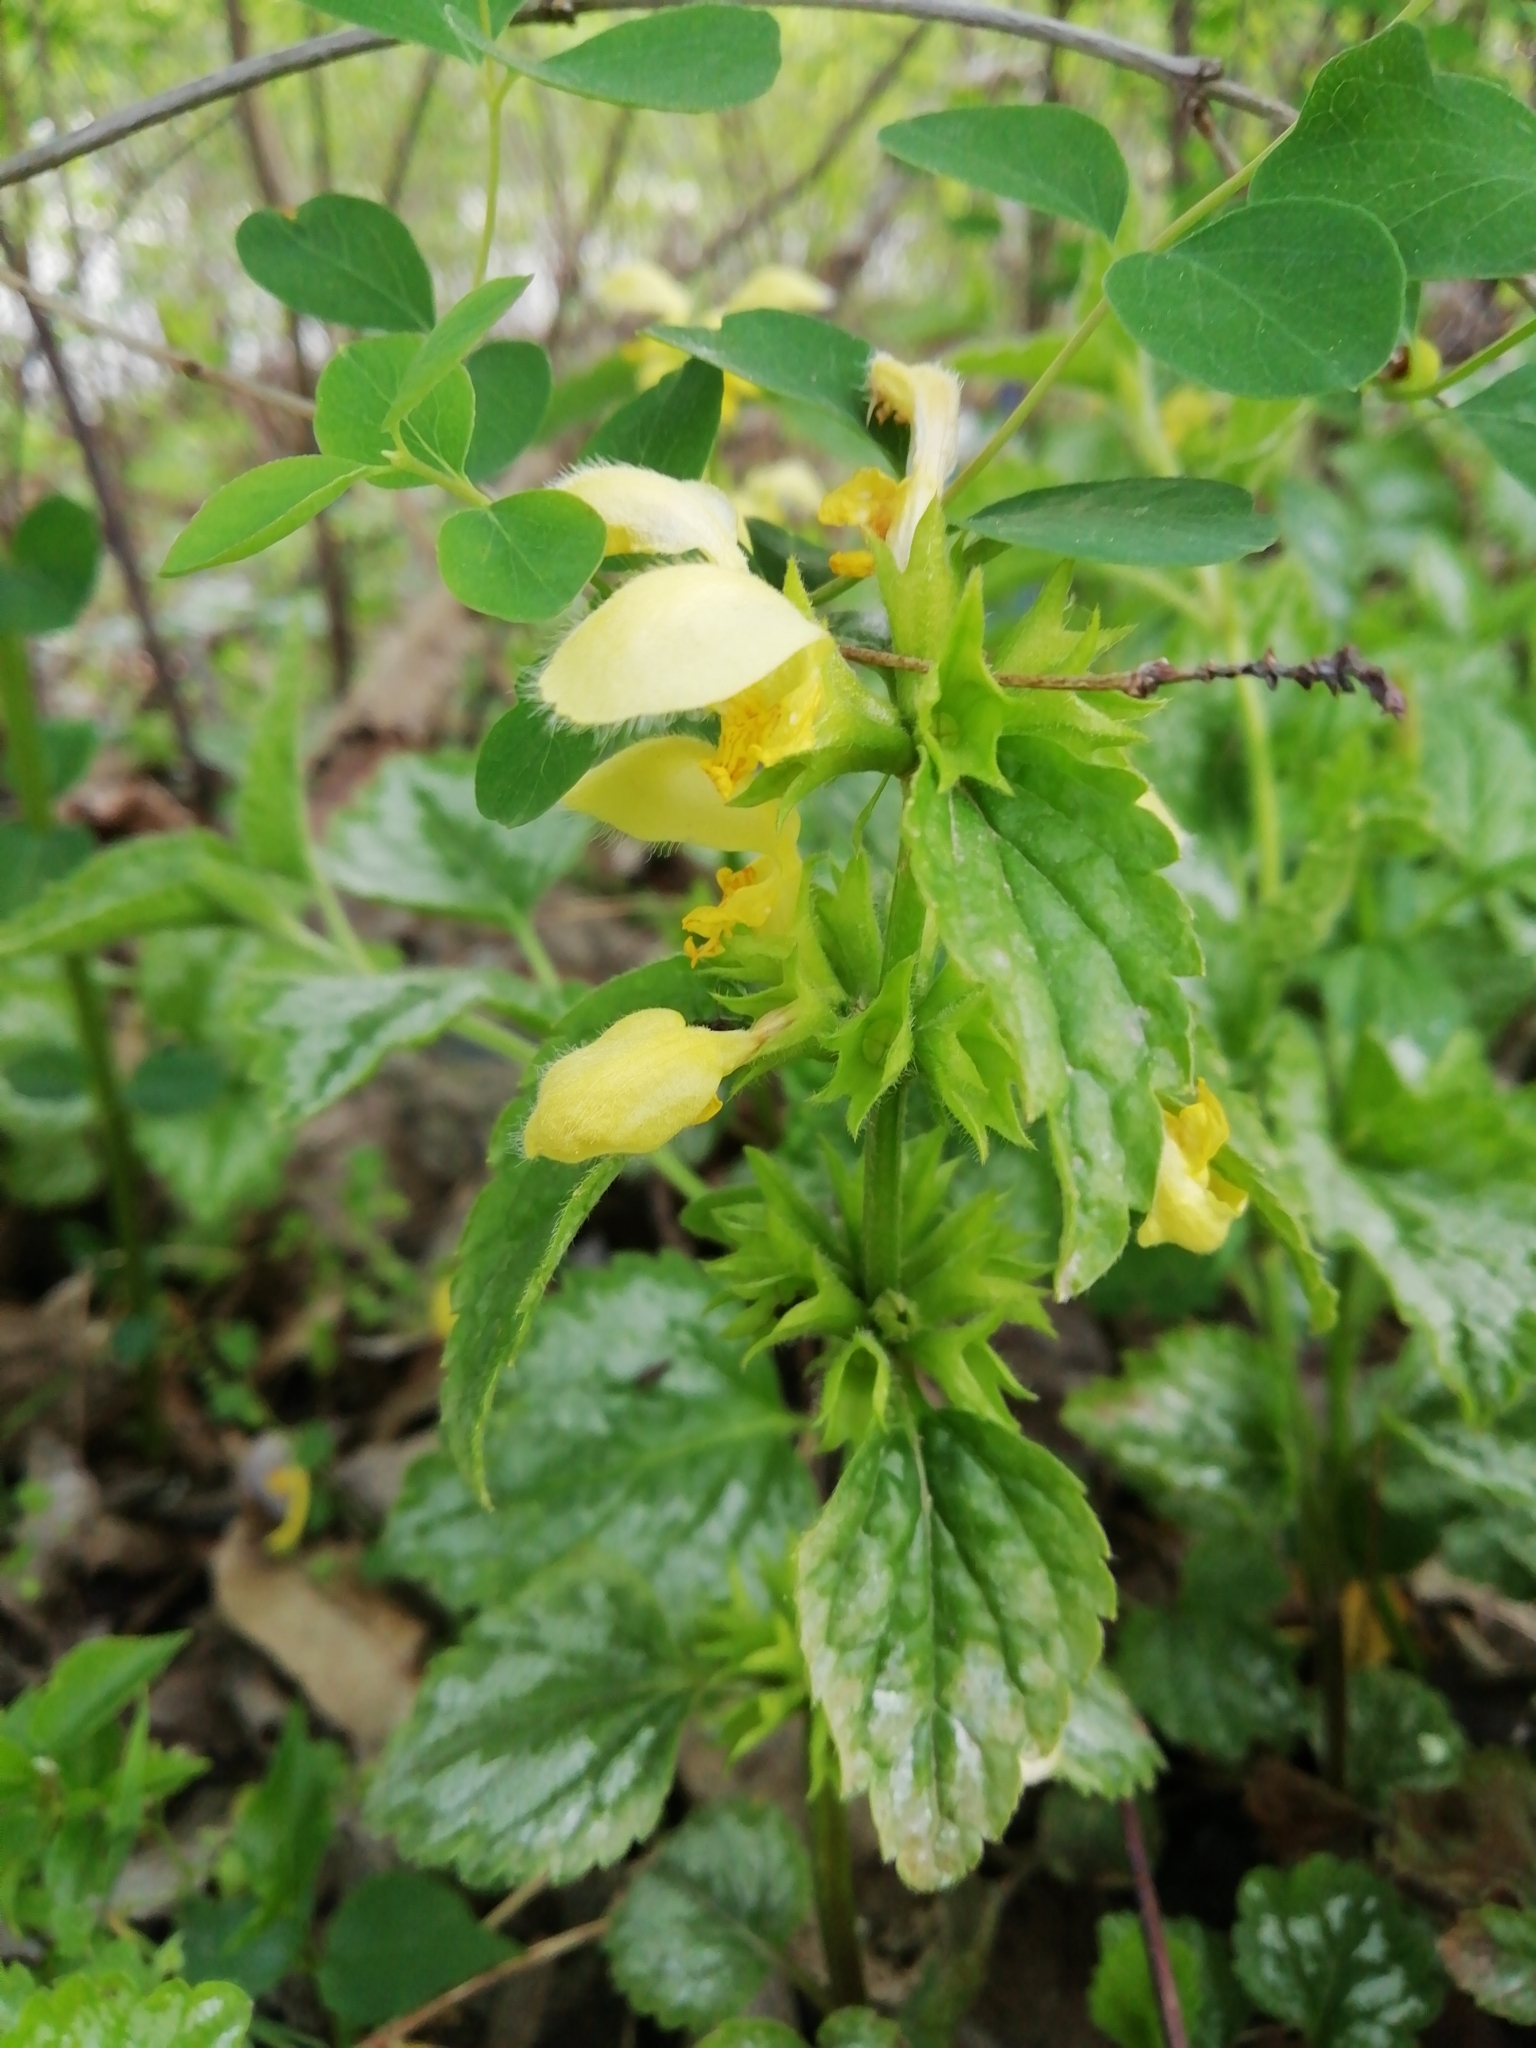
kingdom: Plantae
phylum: Tracheophyta
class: Magnoliopsida
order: Lamiales
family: Lamiaceae
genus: Lamium
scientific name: Lamium galeobdolon
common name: Yellow archangel
